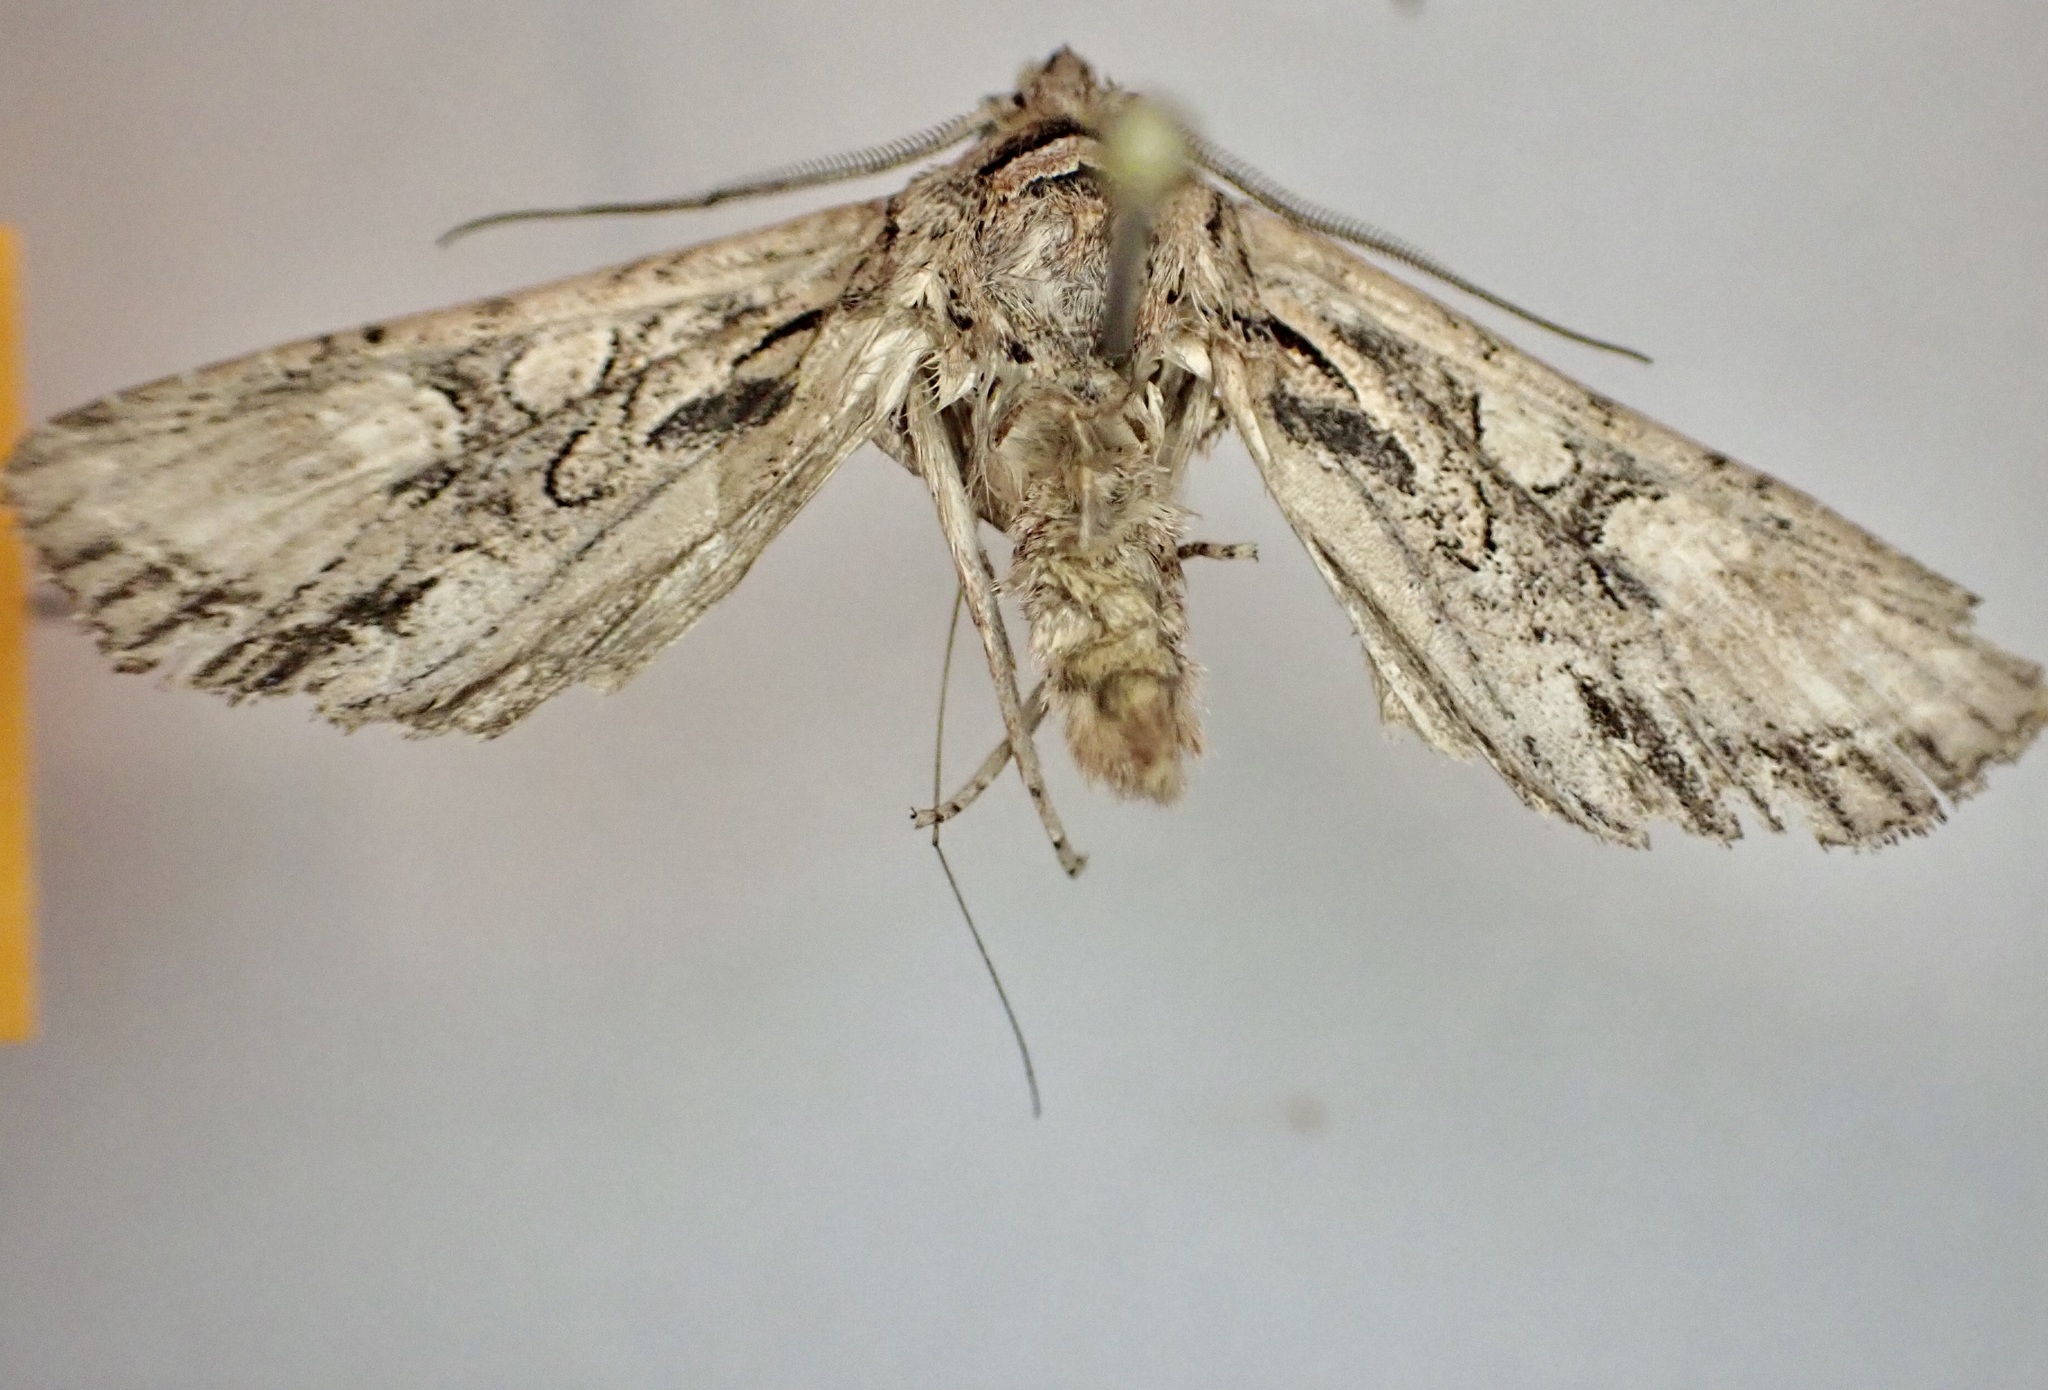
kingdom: Animalia
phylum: Arthropoda
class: Insecta
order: Lepidoptera
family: Noctuidae
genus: Ichneutica
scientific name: Ichneutica mutans
